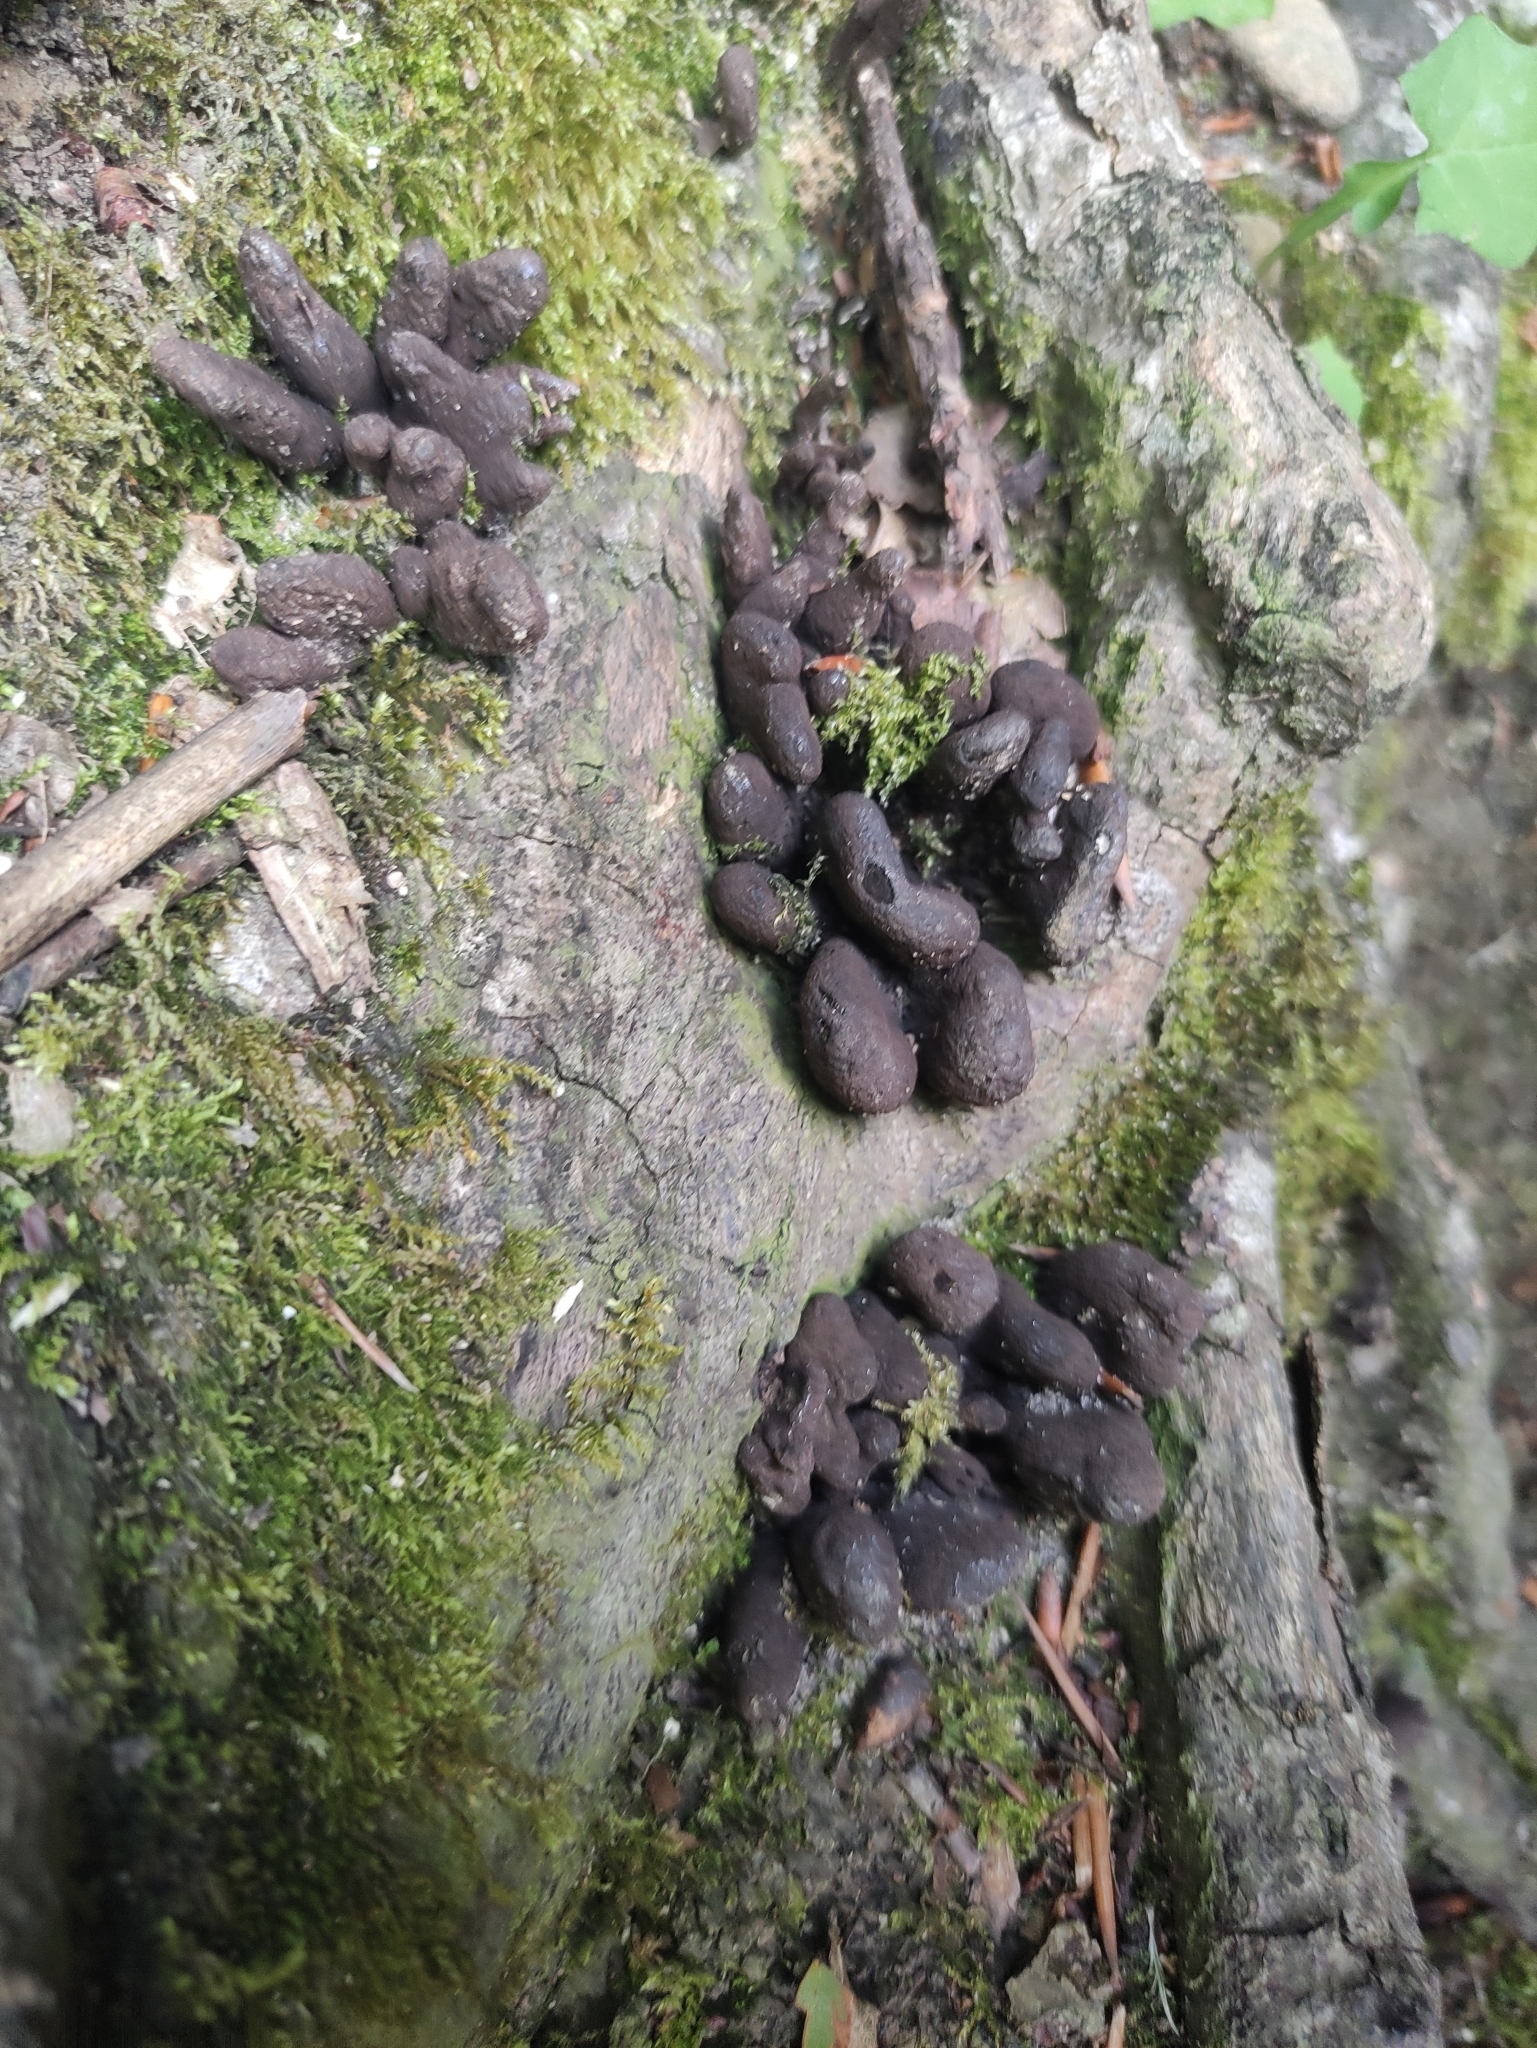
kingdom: Fungi
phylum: Ascomycota
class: Sordariomycetes
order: Xylariales
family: Xylariaceae
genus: Xylaria
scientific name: Xylaria polymorpha
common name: Dead man's fingers
